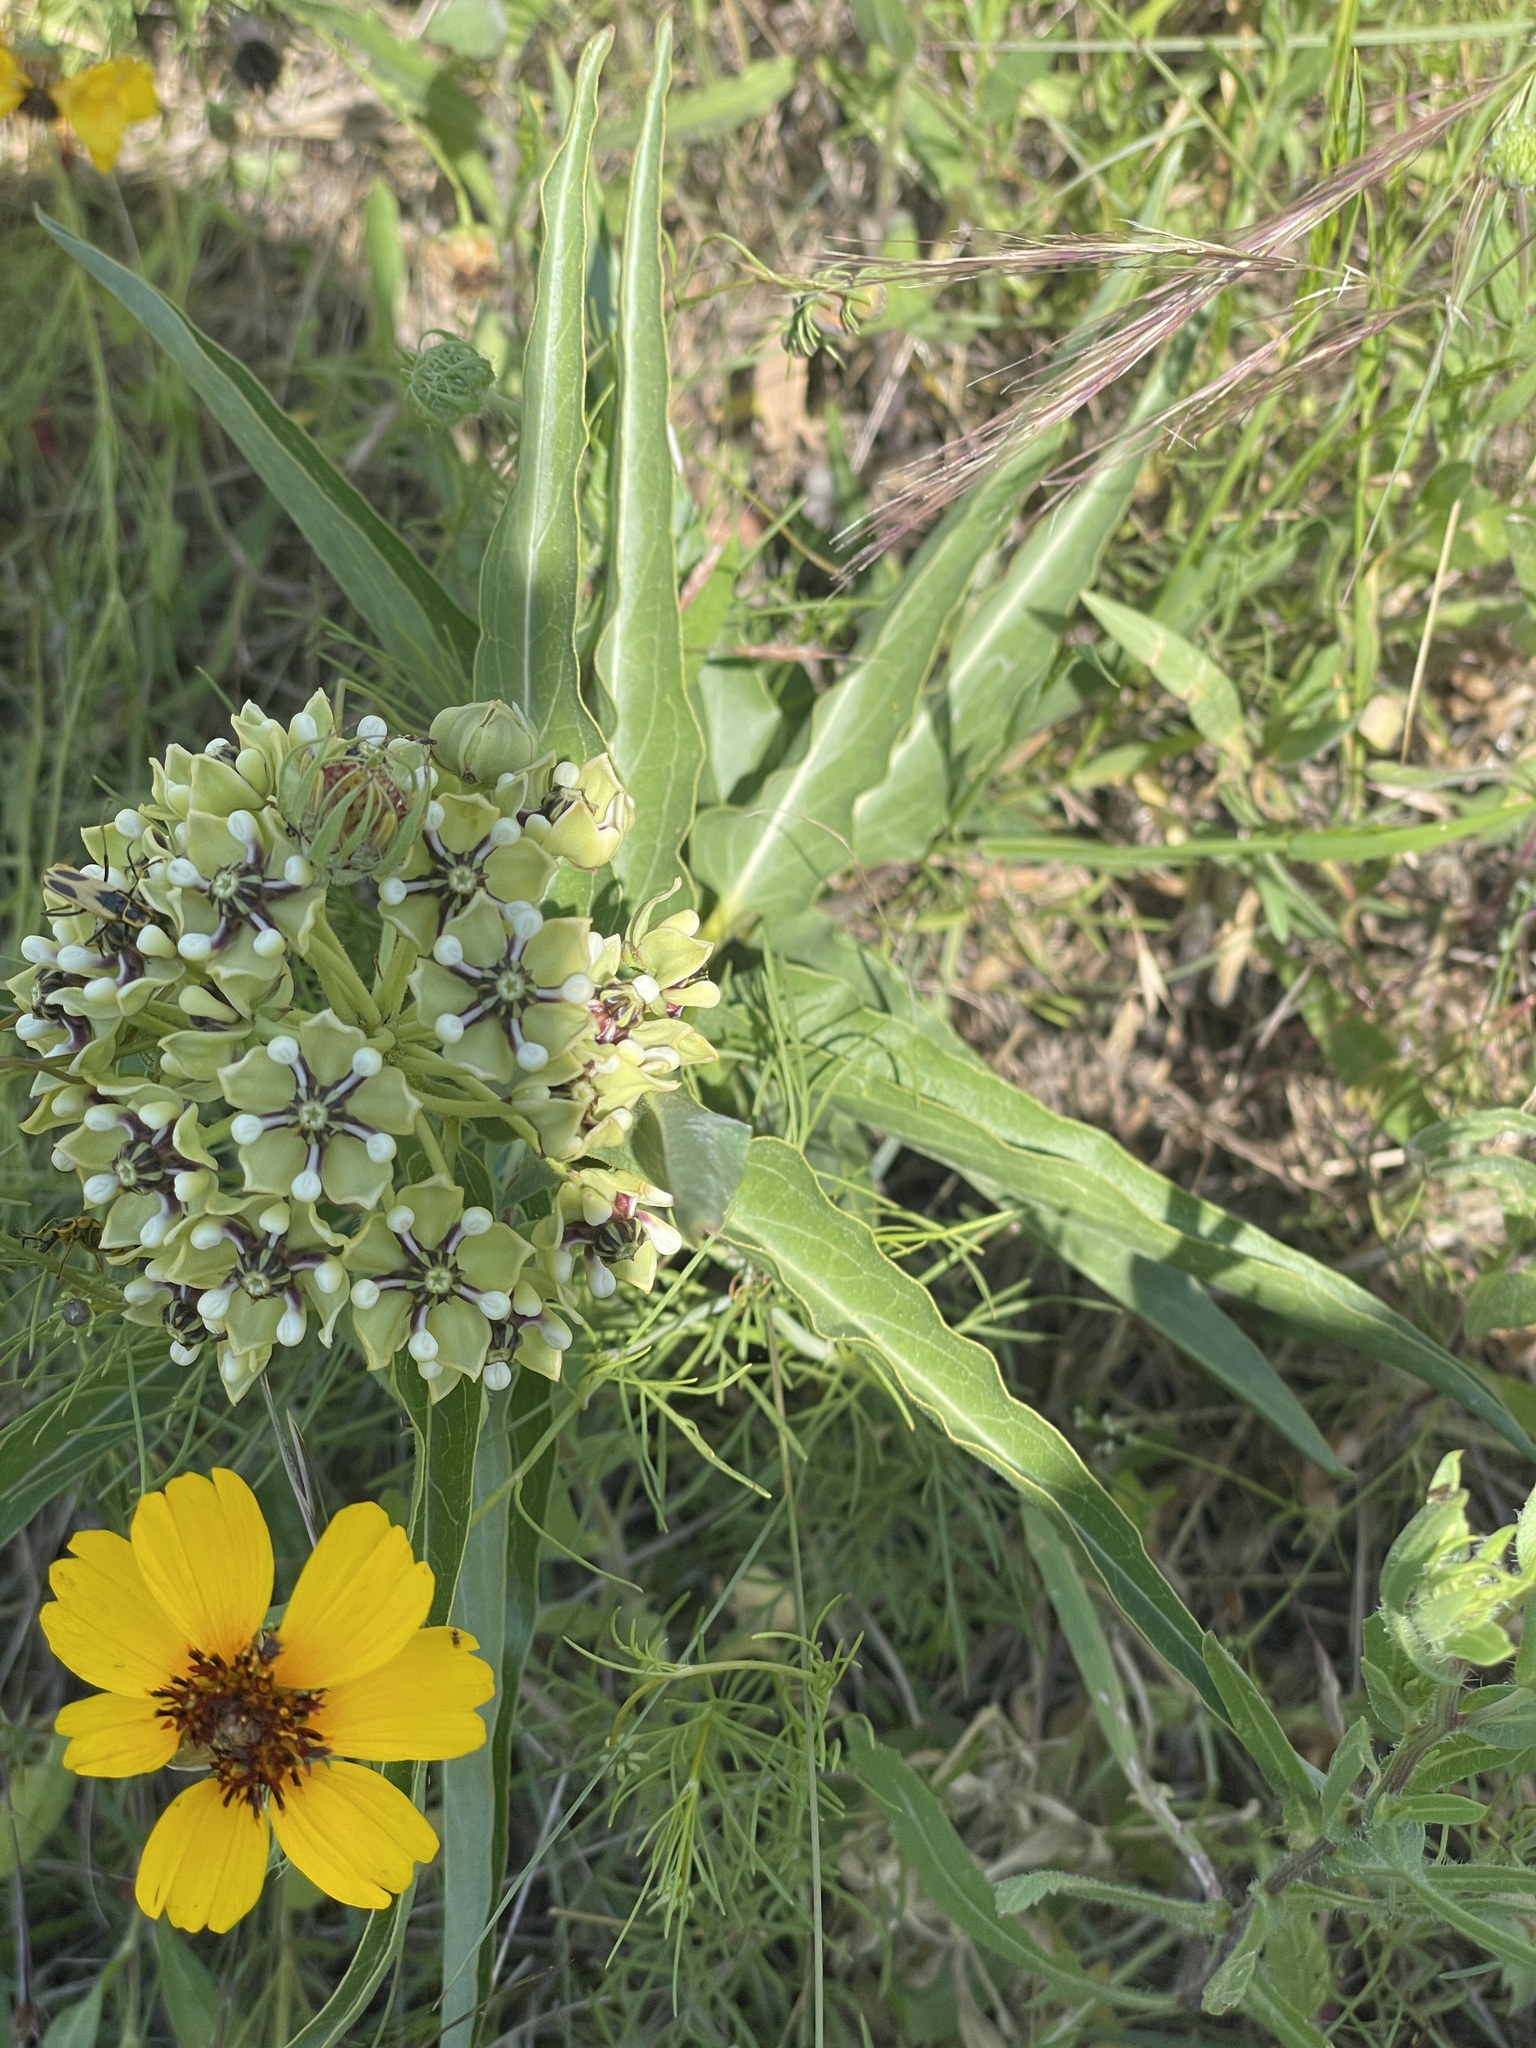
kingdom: Plantae
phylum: Tracheophyta
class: Magnoliopsida
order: Gentianales
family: Apocynaceae
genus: Asclepias
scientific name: Asclepias asperula
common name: Antelope horns
